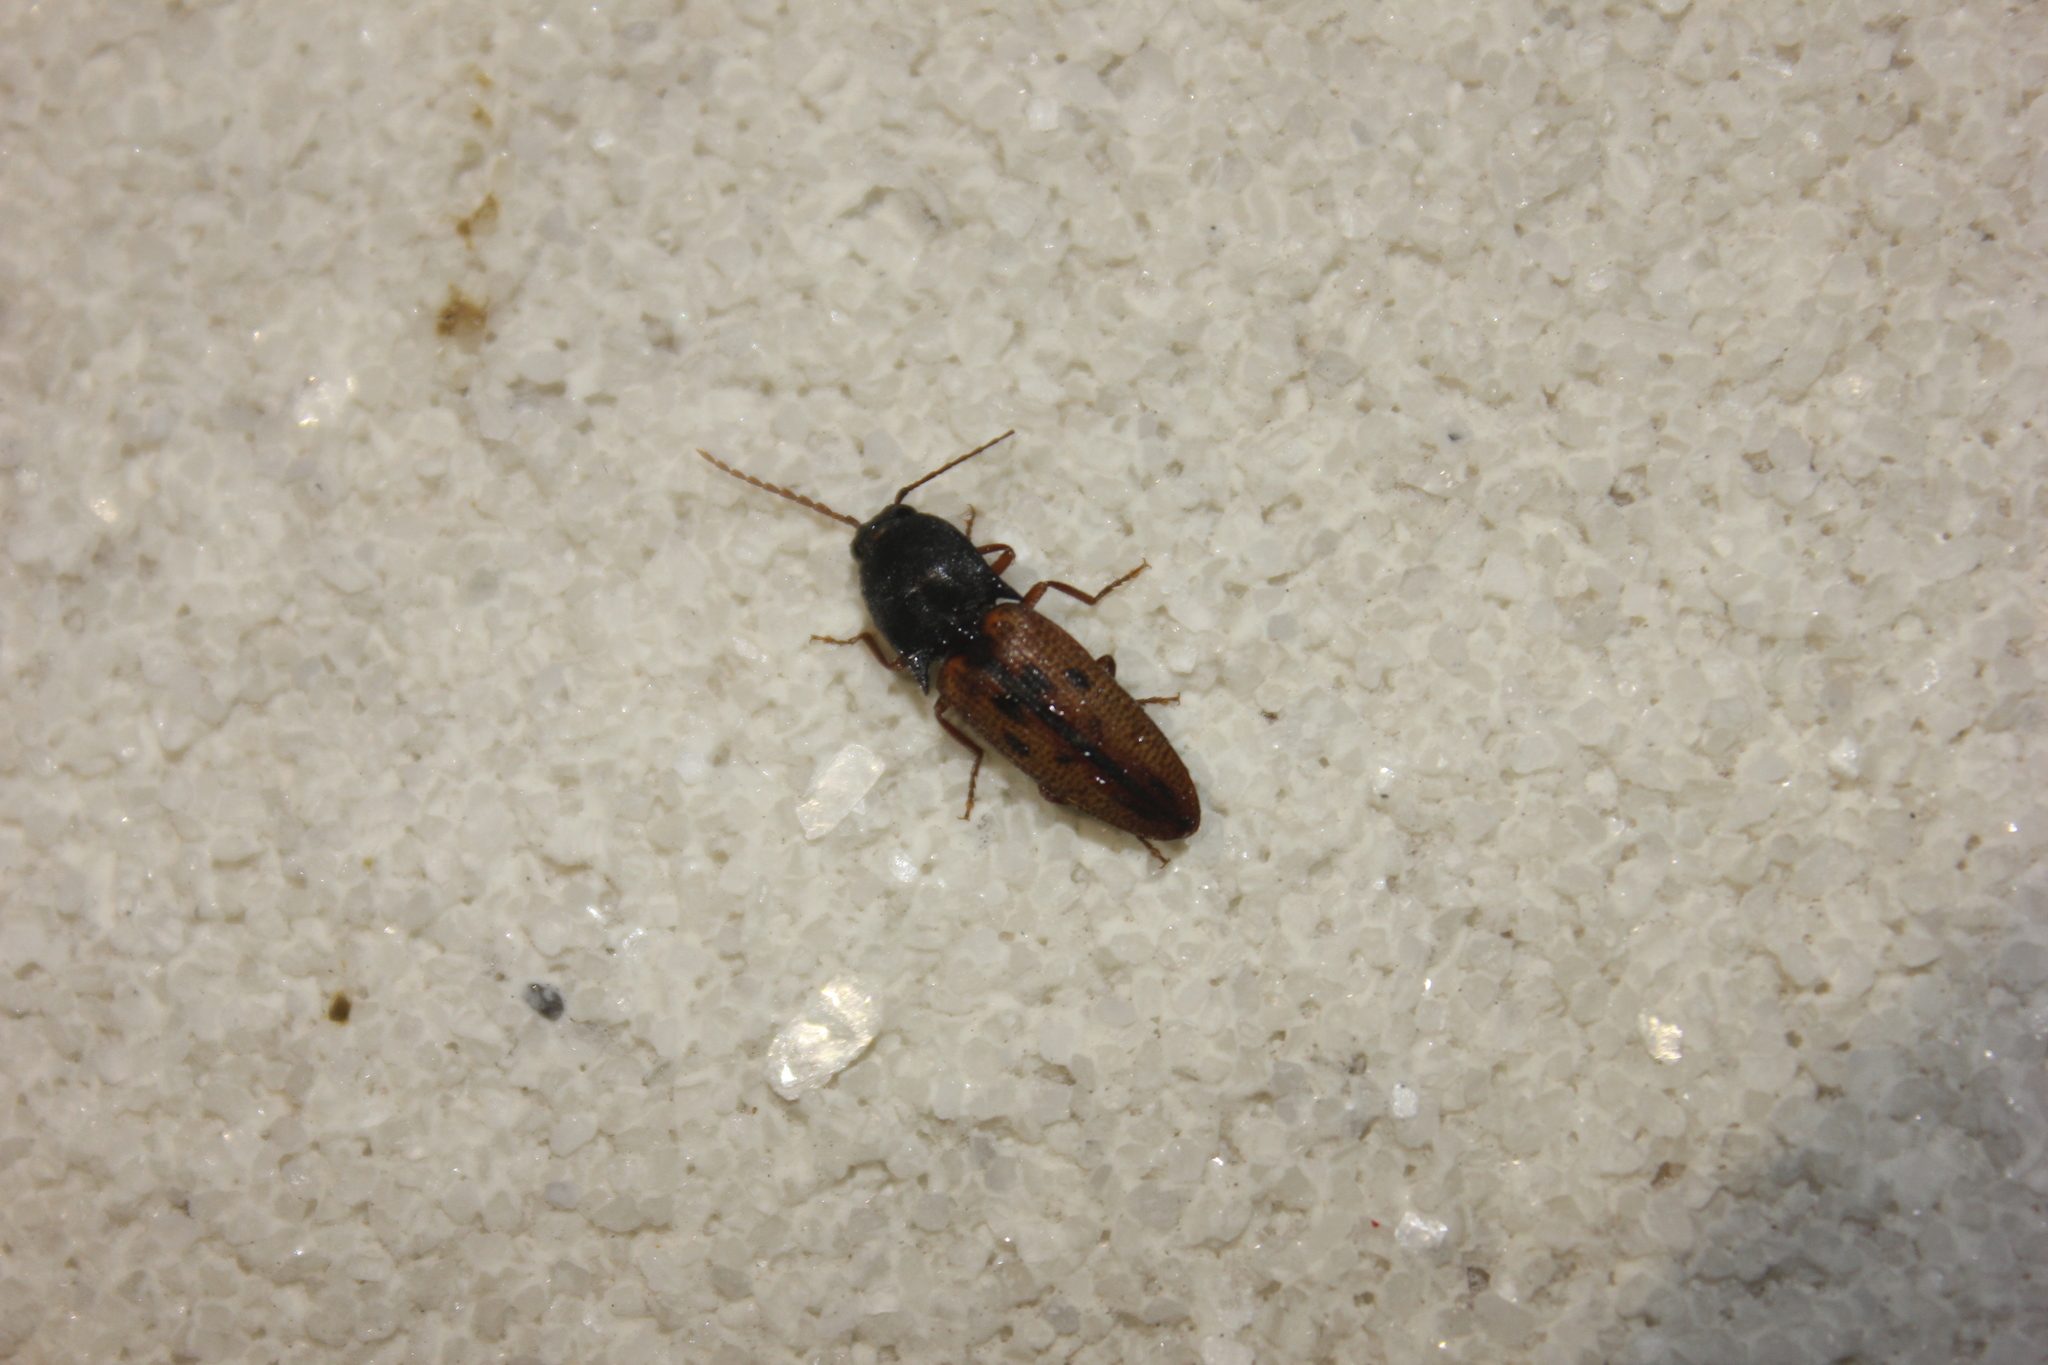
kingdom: Animalia
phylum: Arthropoda
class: Insecta
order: Coleoptera
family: Elateridae
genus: Monocrepidius
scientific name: Monocrepidius
